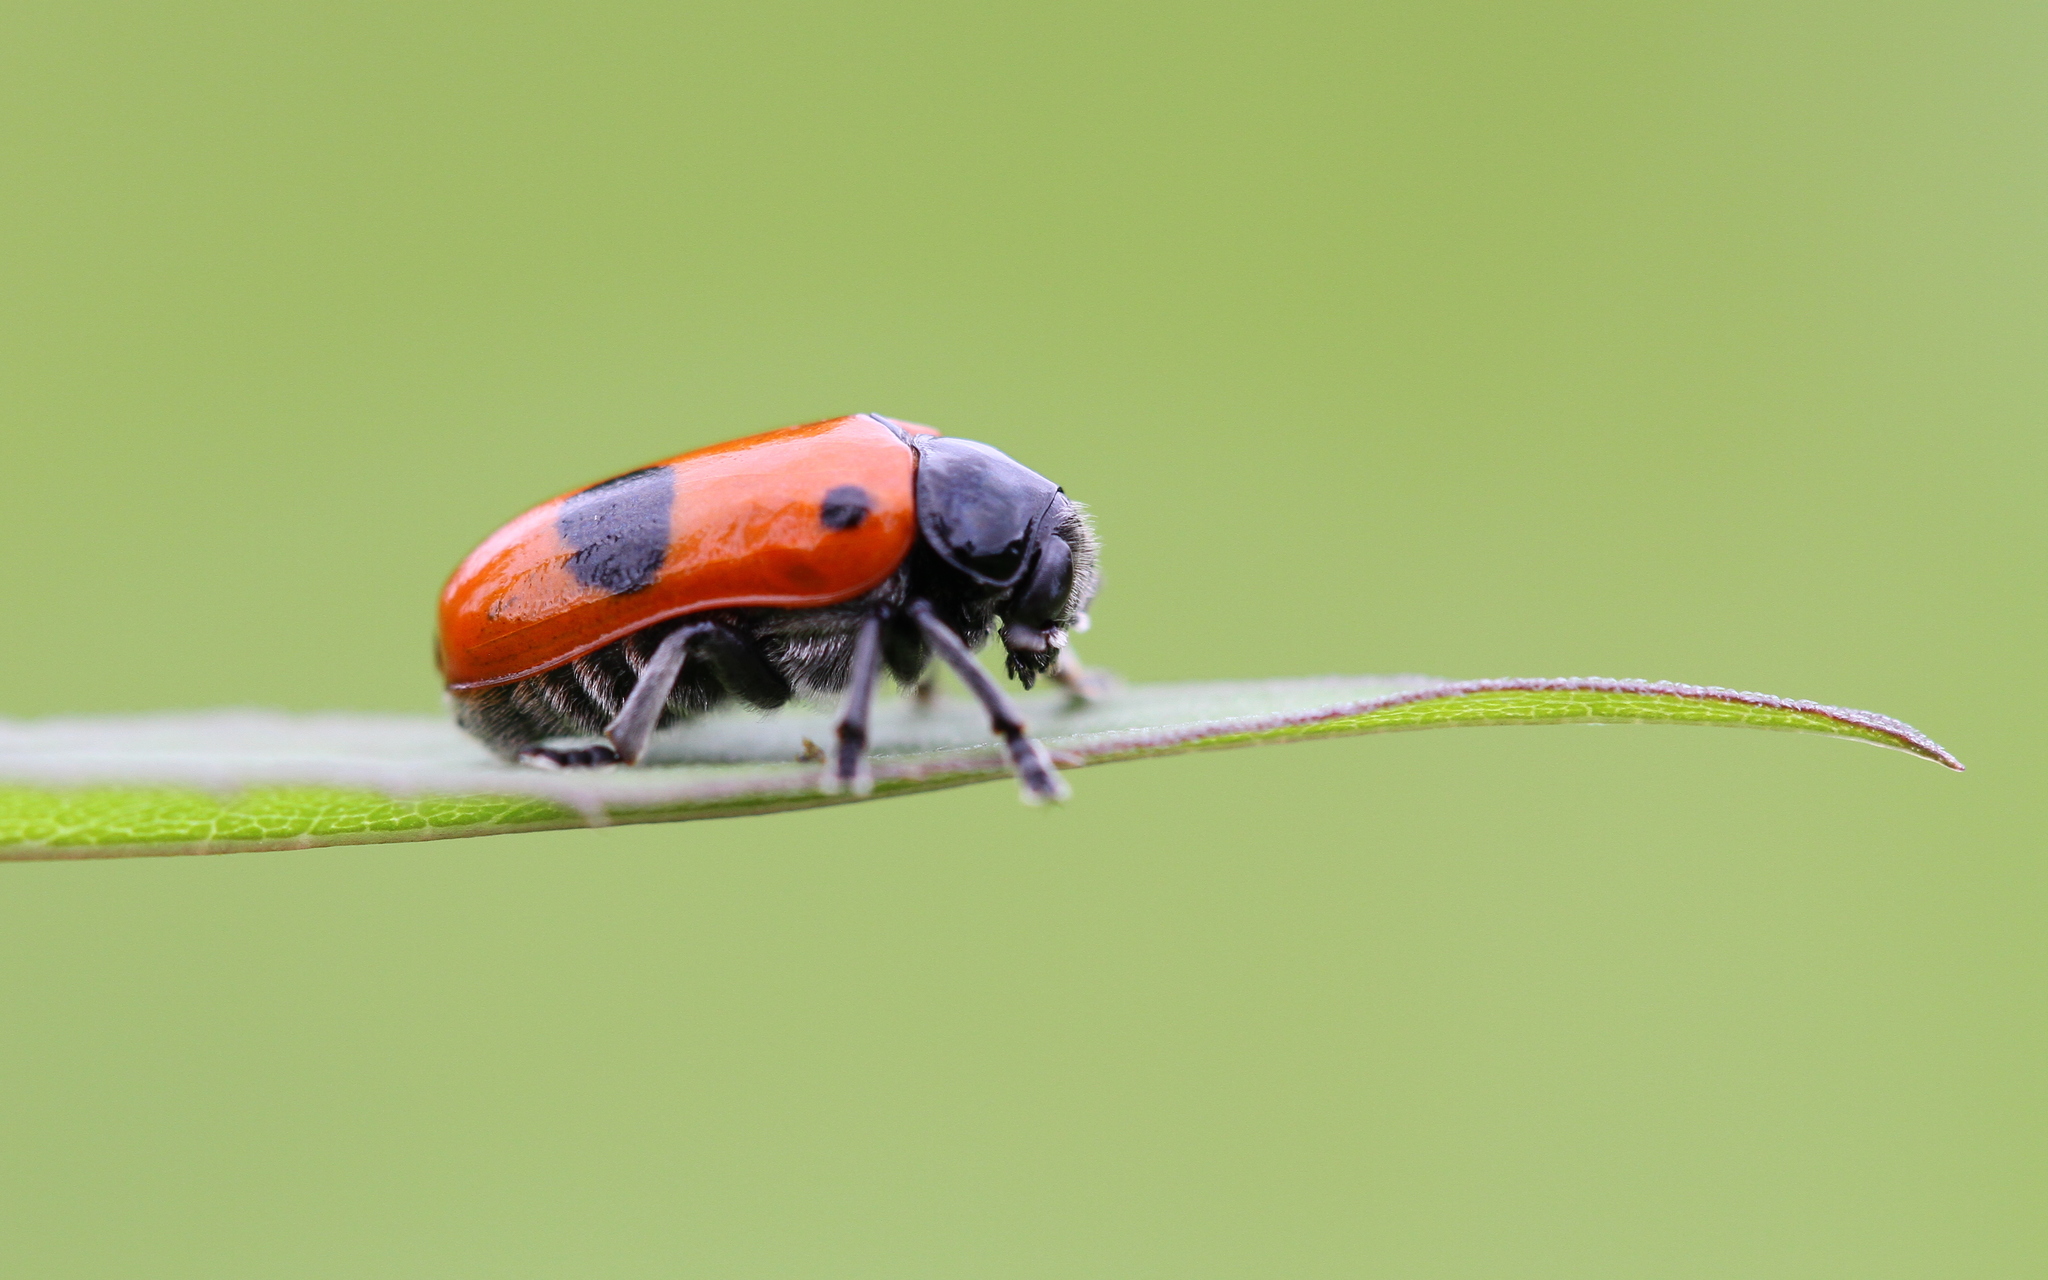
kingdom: Animalia
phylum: Arthropoda
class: Insecta
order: Coleoptera
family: Chrysomelidae
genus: Clytra
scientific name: Clytra laeviuscula
